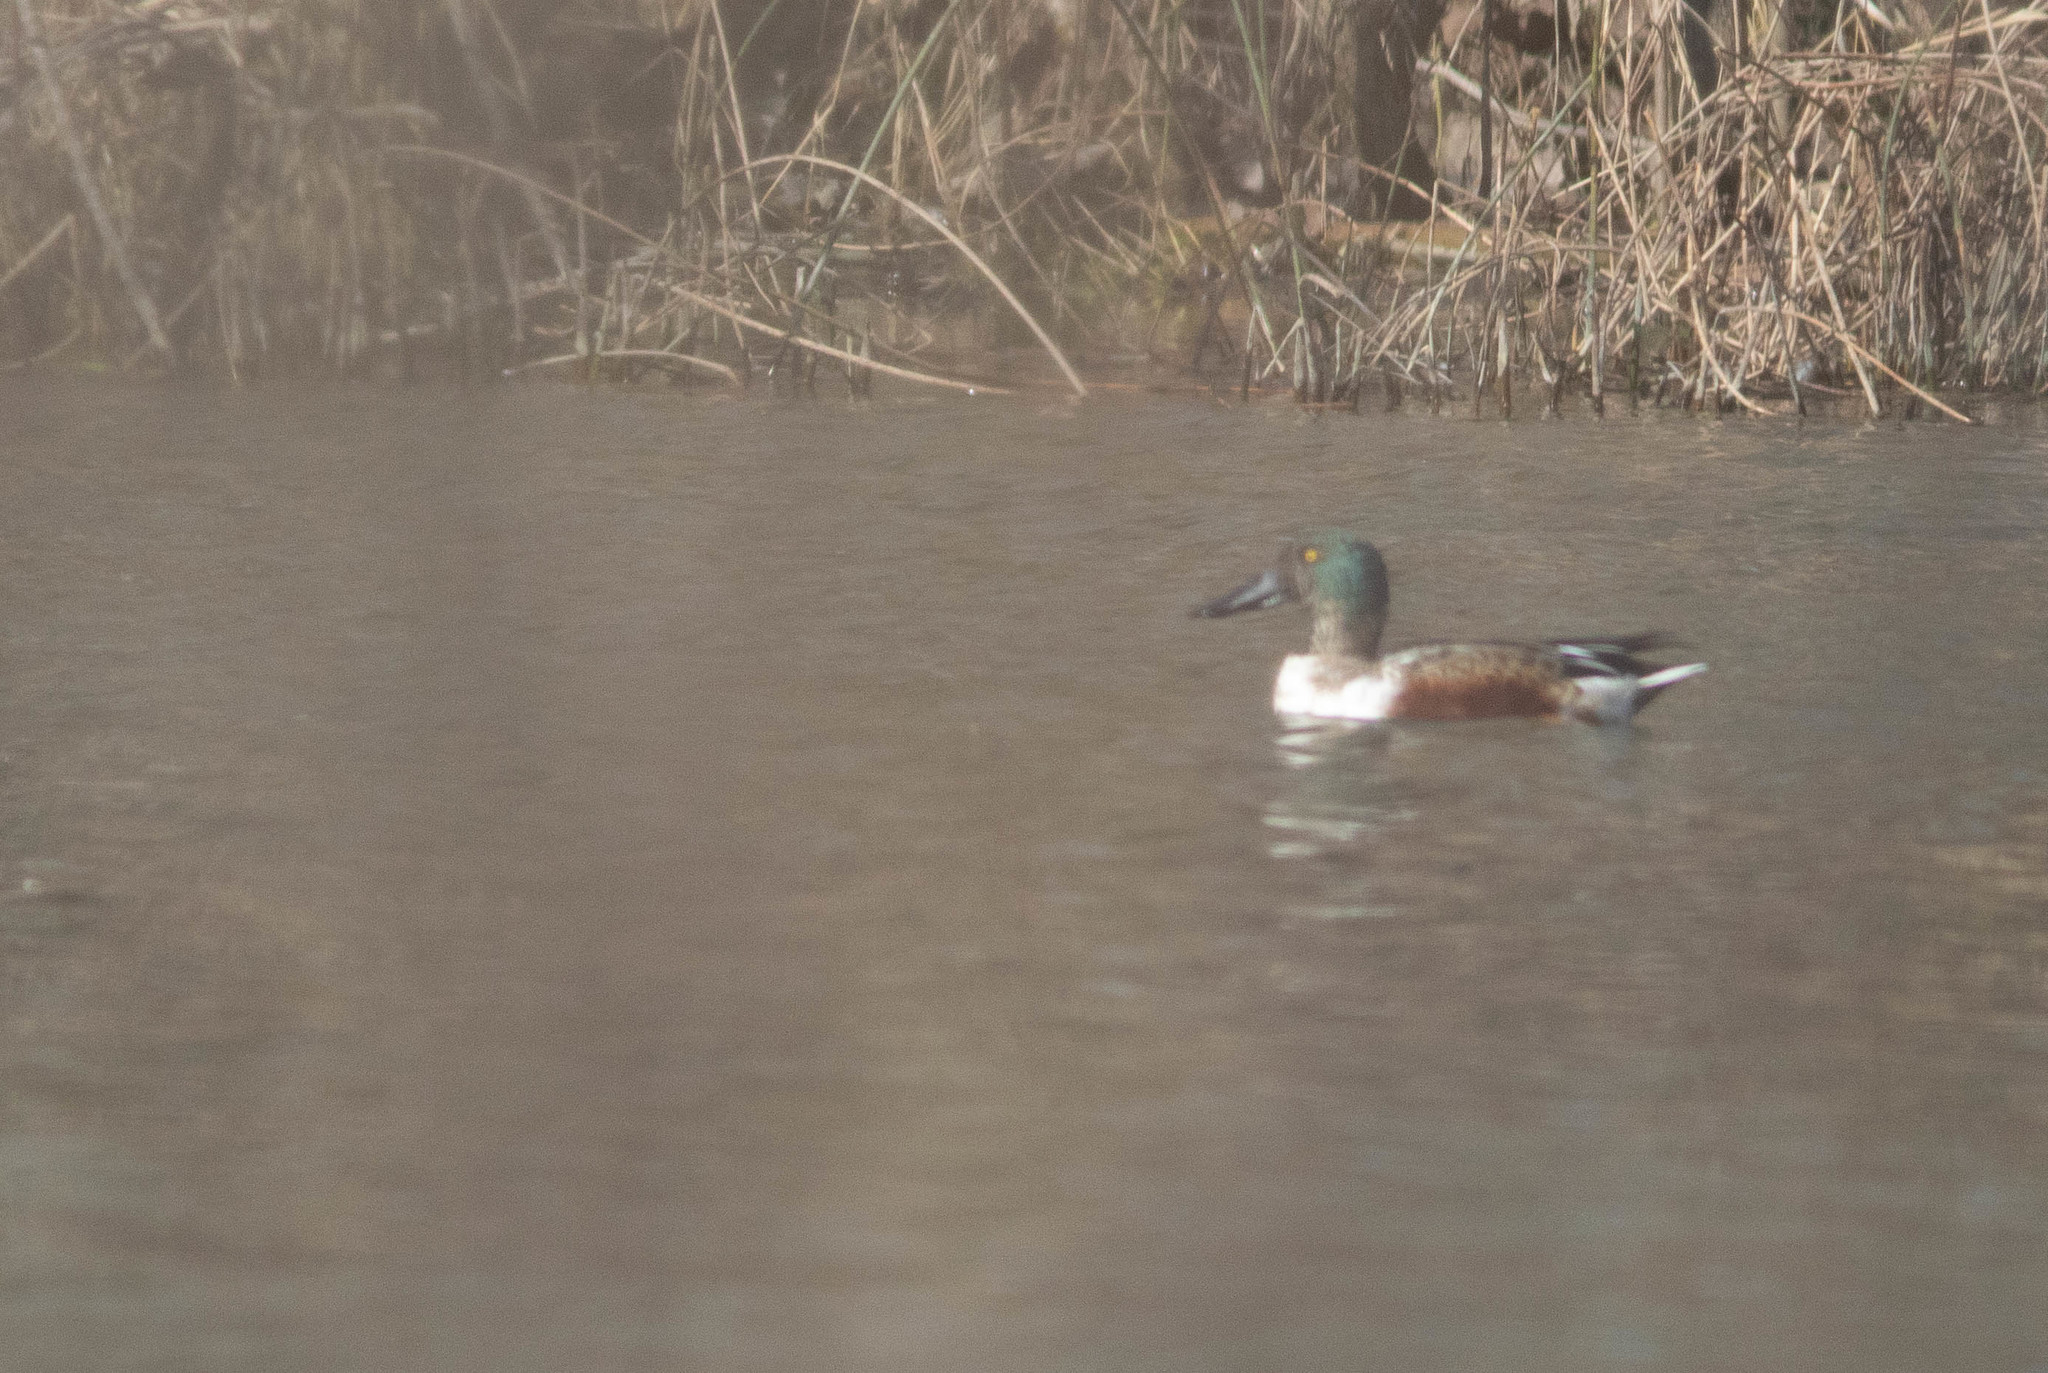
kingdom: Animalia
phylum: Chordata
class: Aves
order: Anseriformes
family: Anatidae
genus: Spatula
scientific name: Spatula clypeata
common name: Northern shoveler
